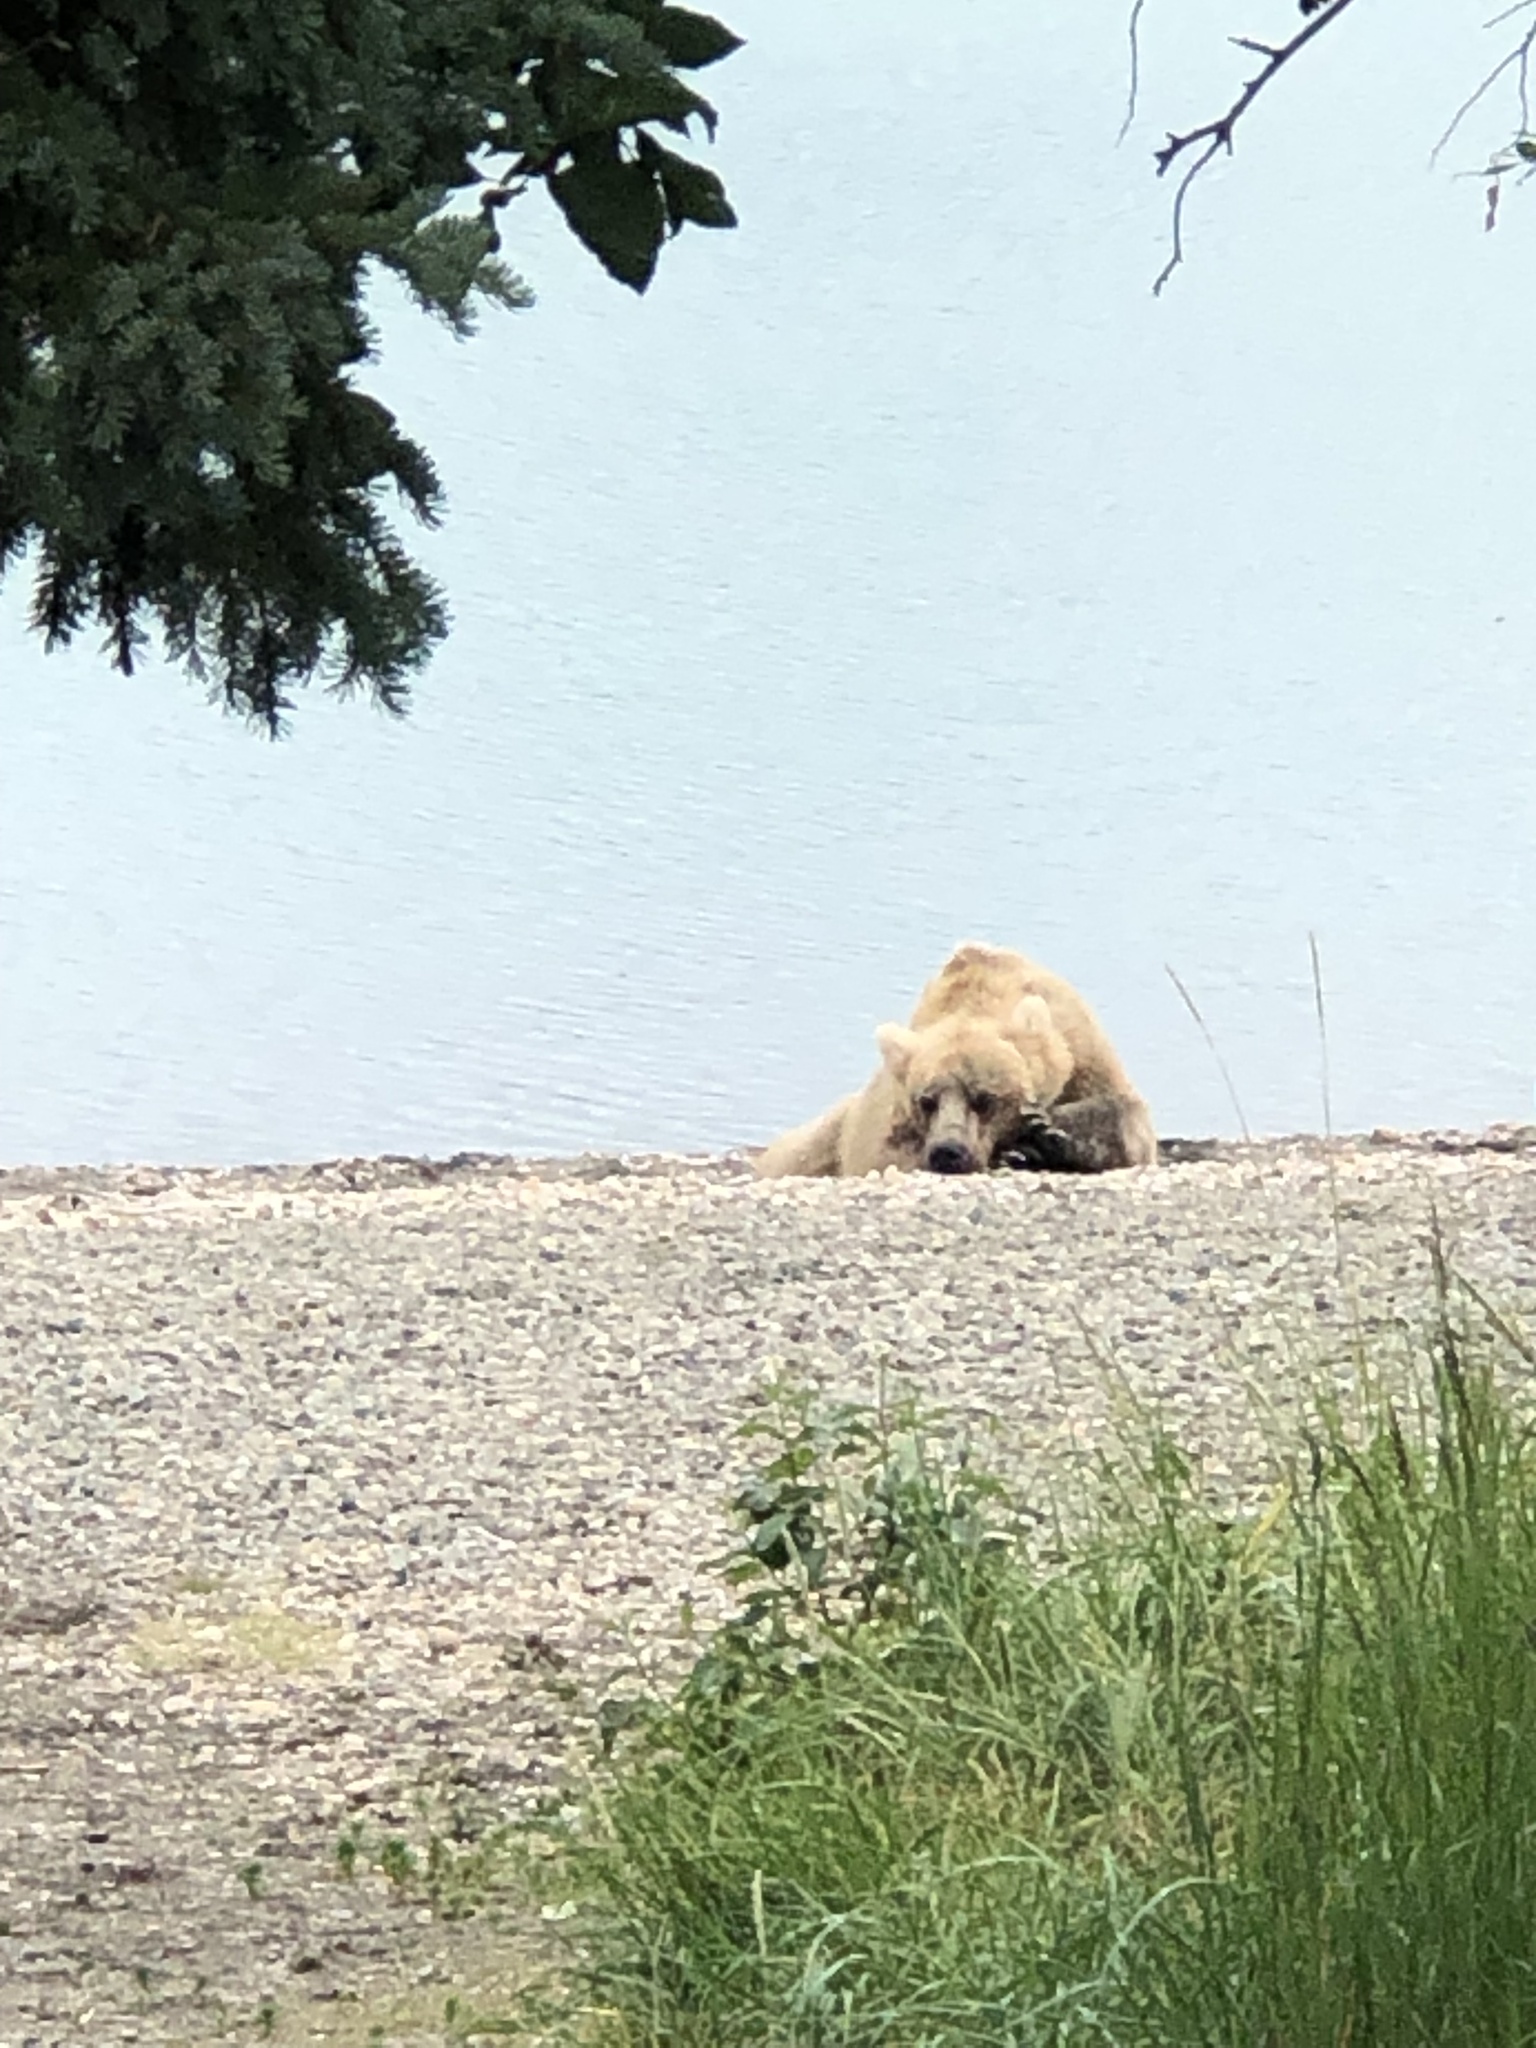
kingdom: Animalia
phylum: Chordata
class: Mammalia
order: Carnivora
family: Ursidae
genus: Ursus
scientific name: Ursus arctos
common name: Brown bear
